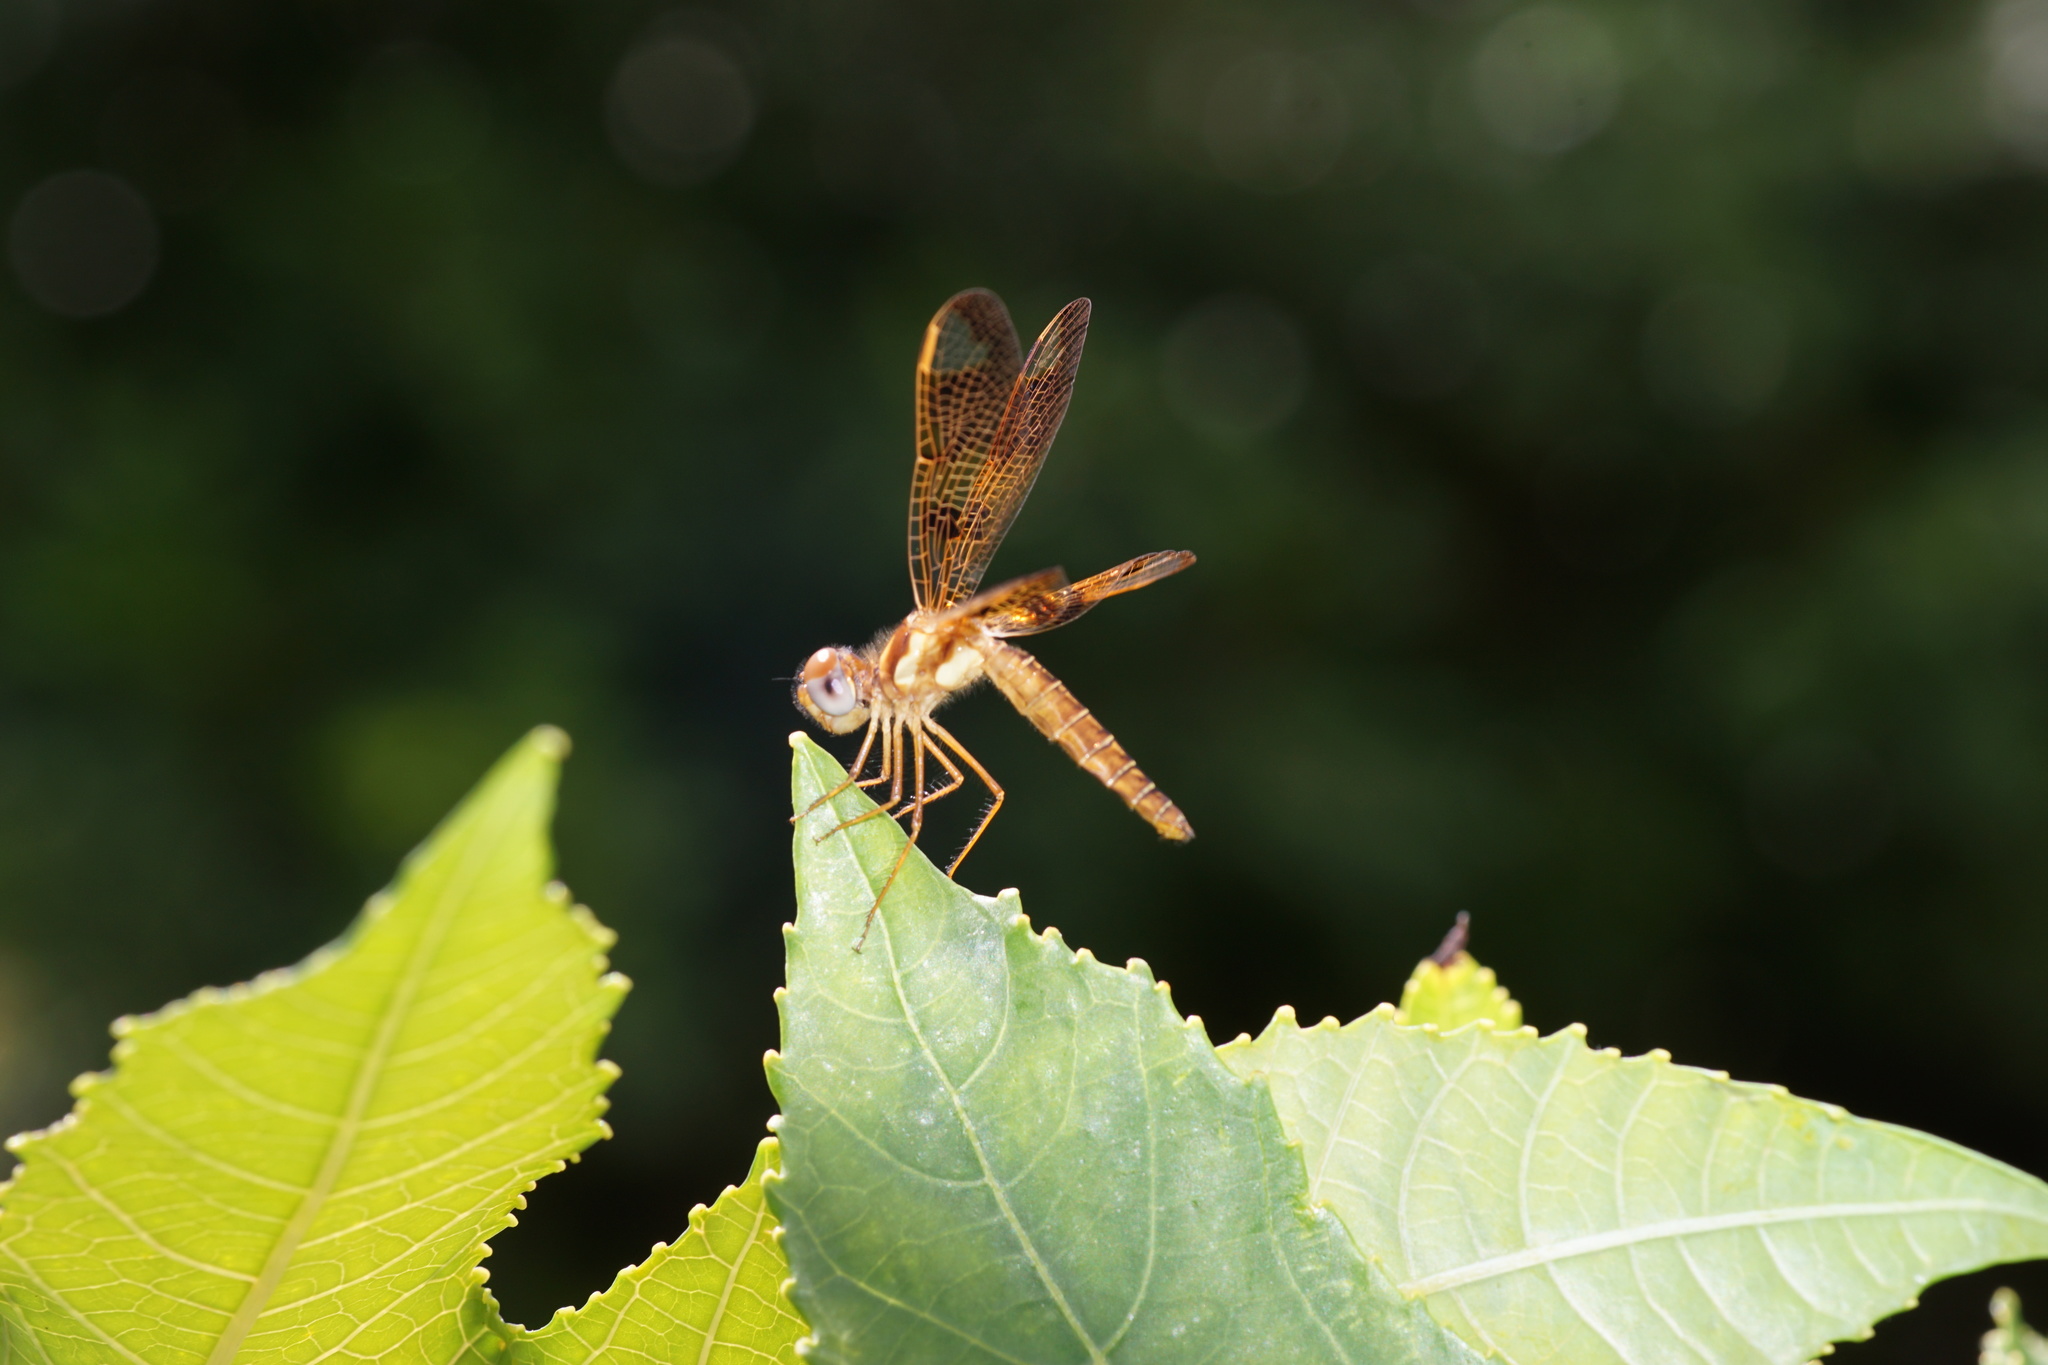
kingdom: Animalia
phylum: Arthropoda
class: Insecta
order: Odonata
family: Libellulidae
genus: Perithemis
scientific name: Perithemis tenera
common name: Eastern amberwing
